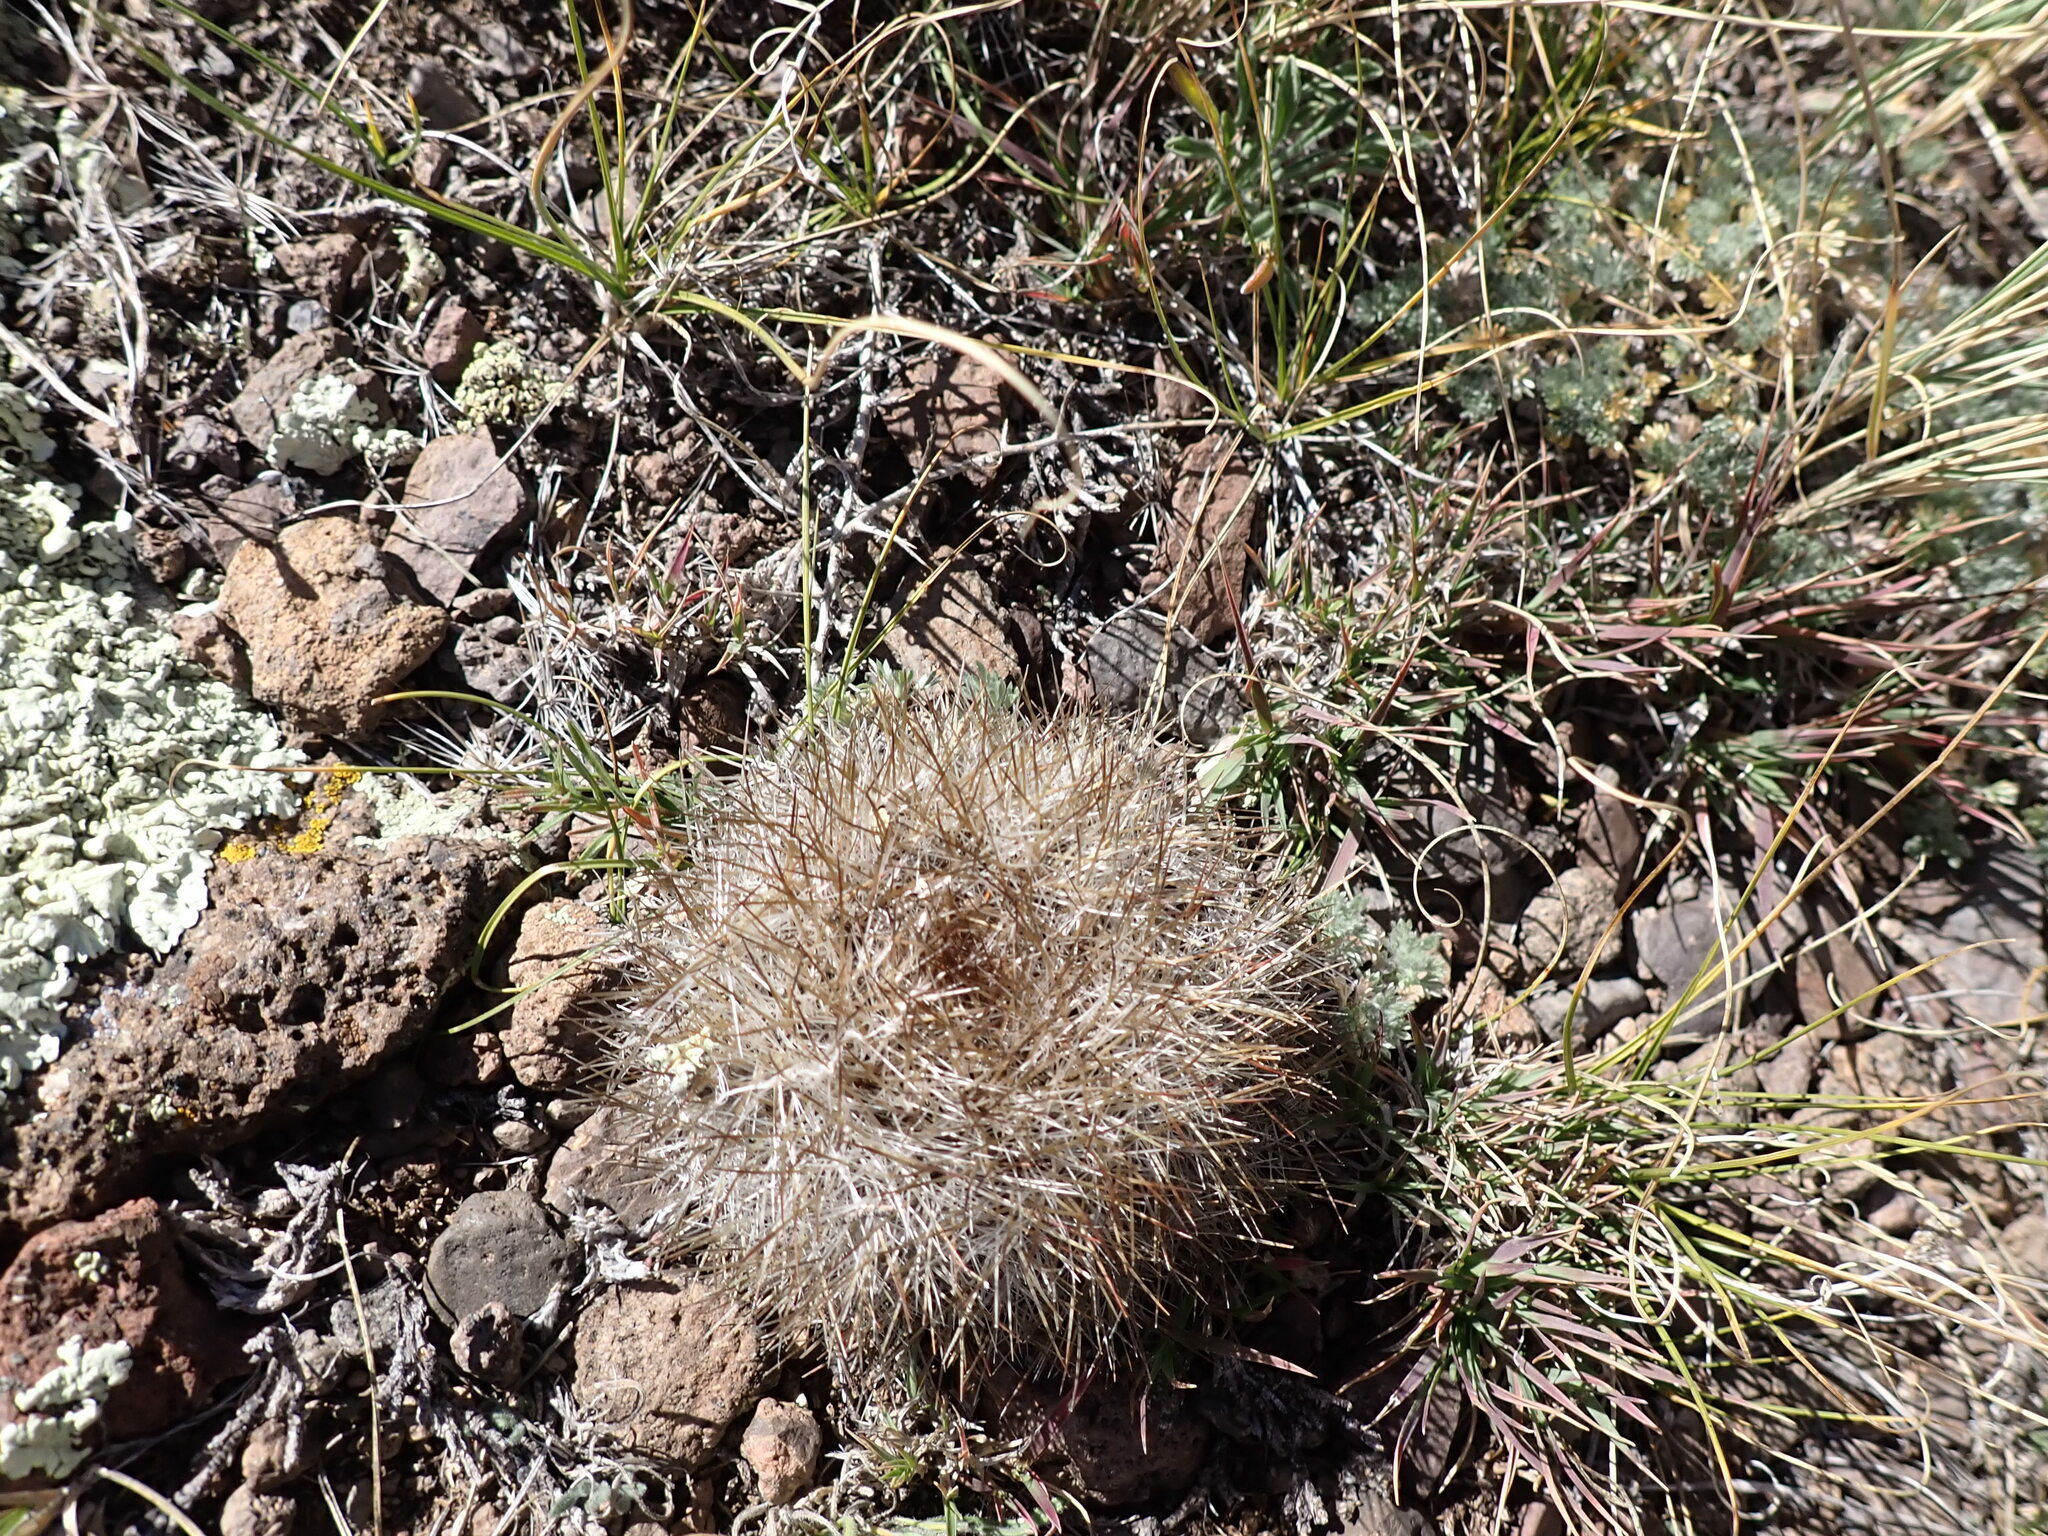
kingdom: Plantae
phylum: Tracheophyta
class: Magnoliopsida
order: Caryophyllales
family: Cactaceae
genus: Pediocactus
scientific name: Pediocactus simpsonii
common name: Simpson's hedgehog cactus
